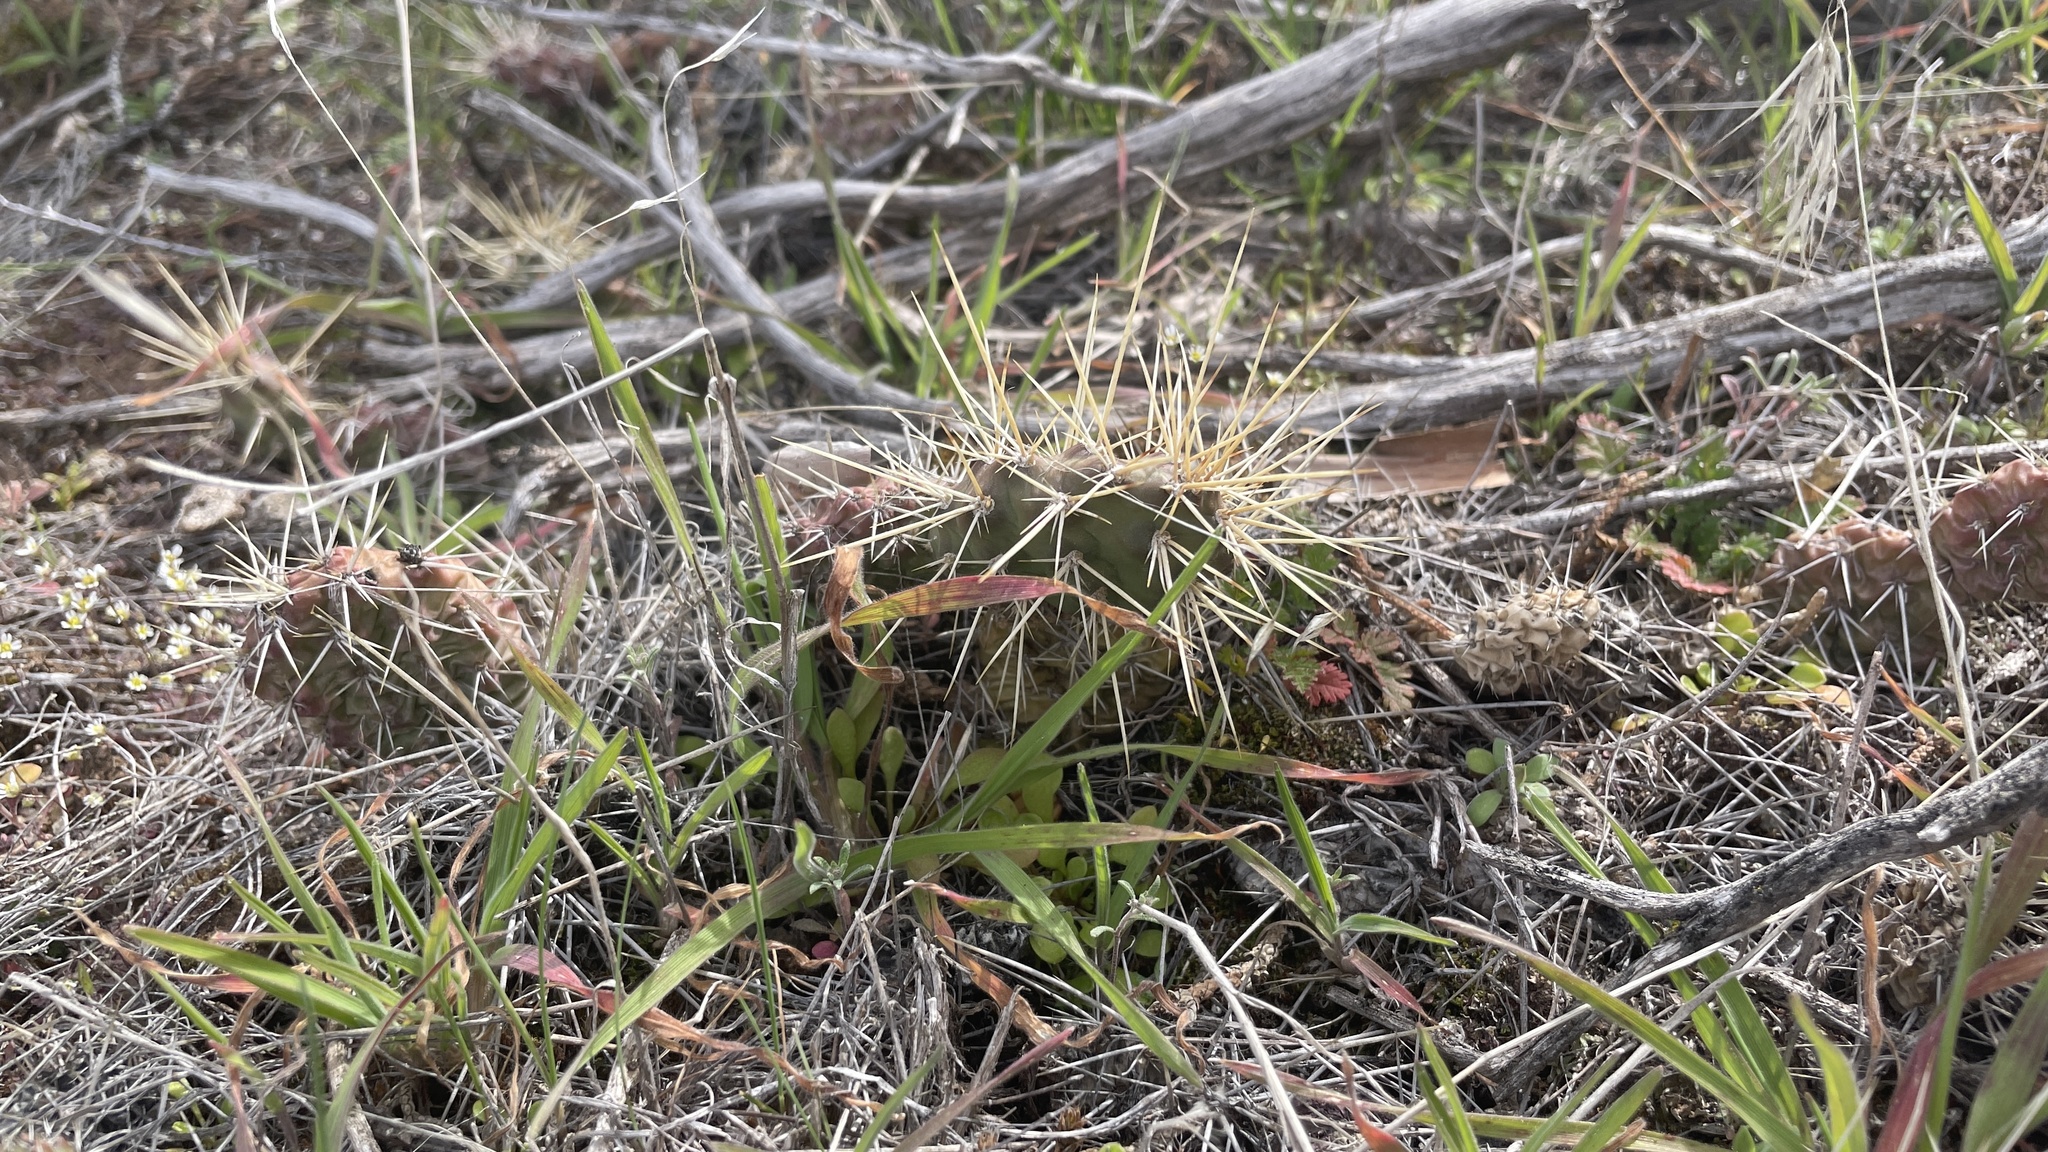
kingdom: Plantae
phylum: Tracheophyta
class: Magnoliopsida
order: Caryophyllales
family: Cactaceae
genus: Opuntia
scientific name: Opuntia fragilis
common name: Brittle cactus
